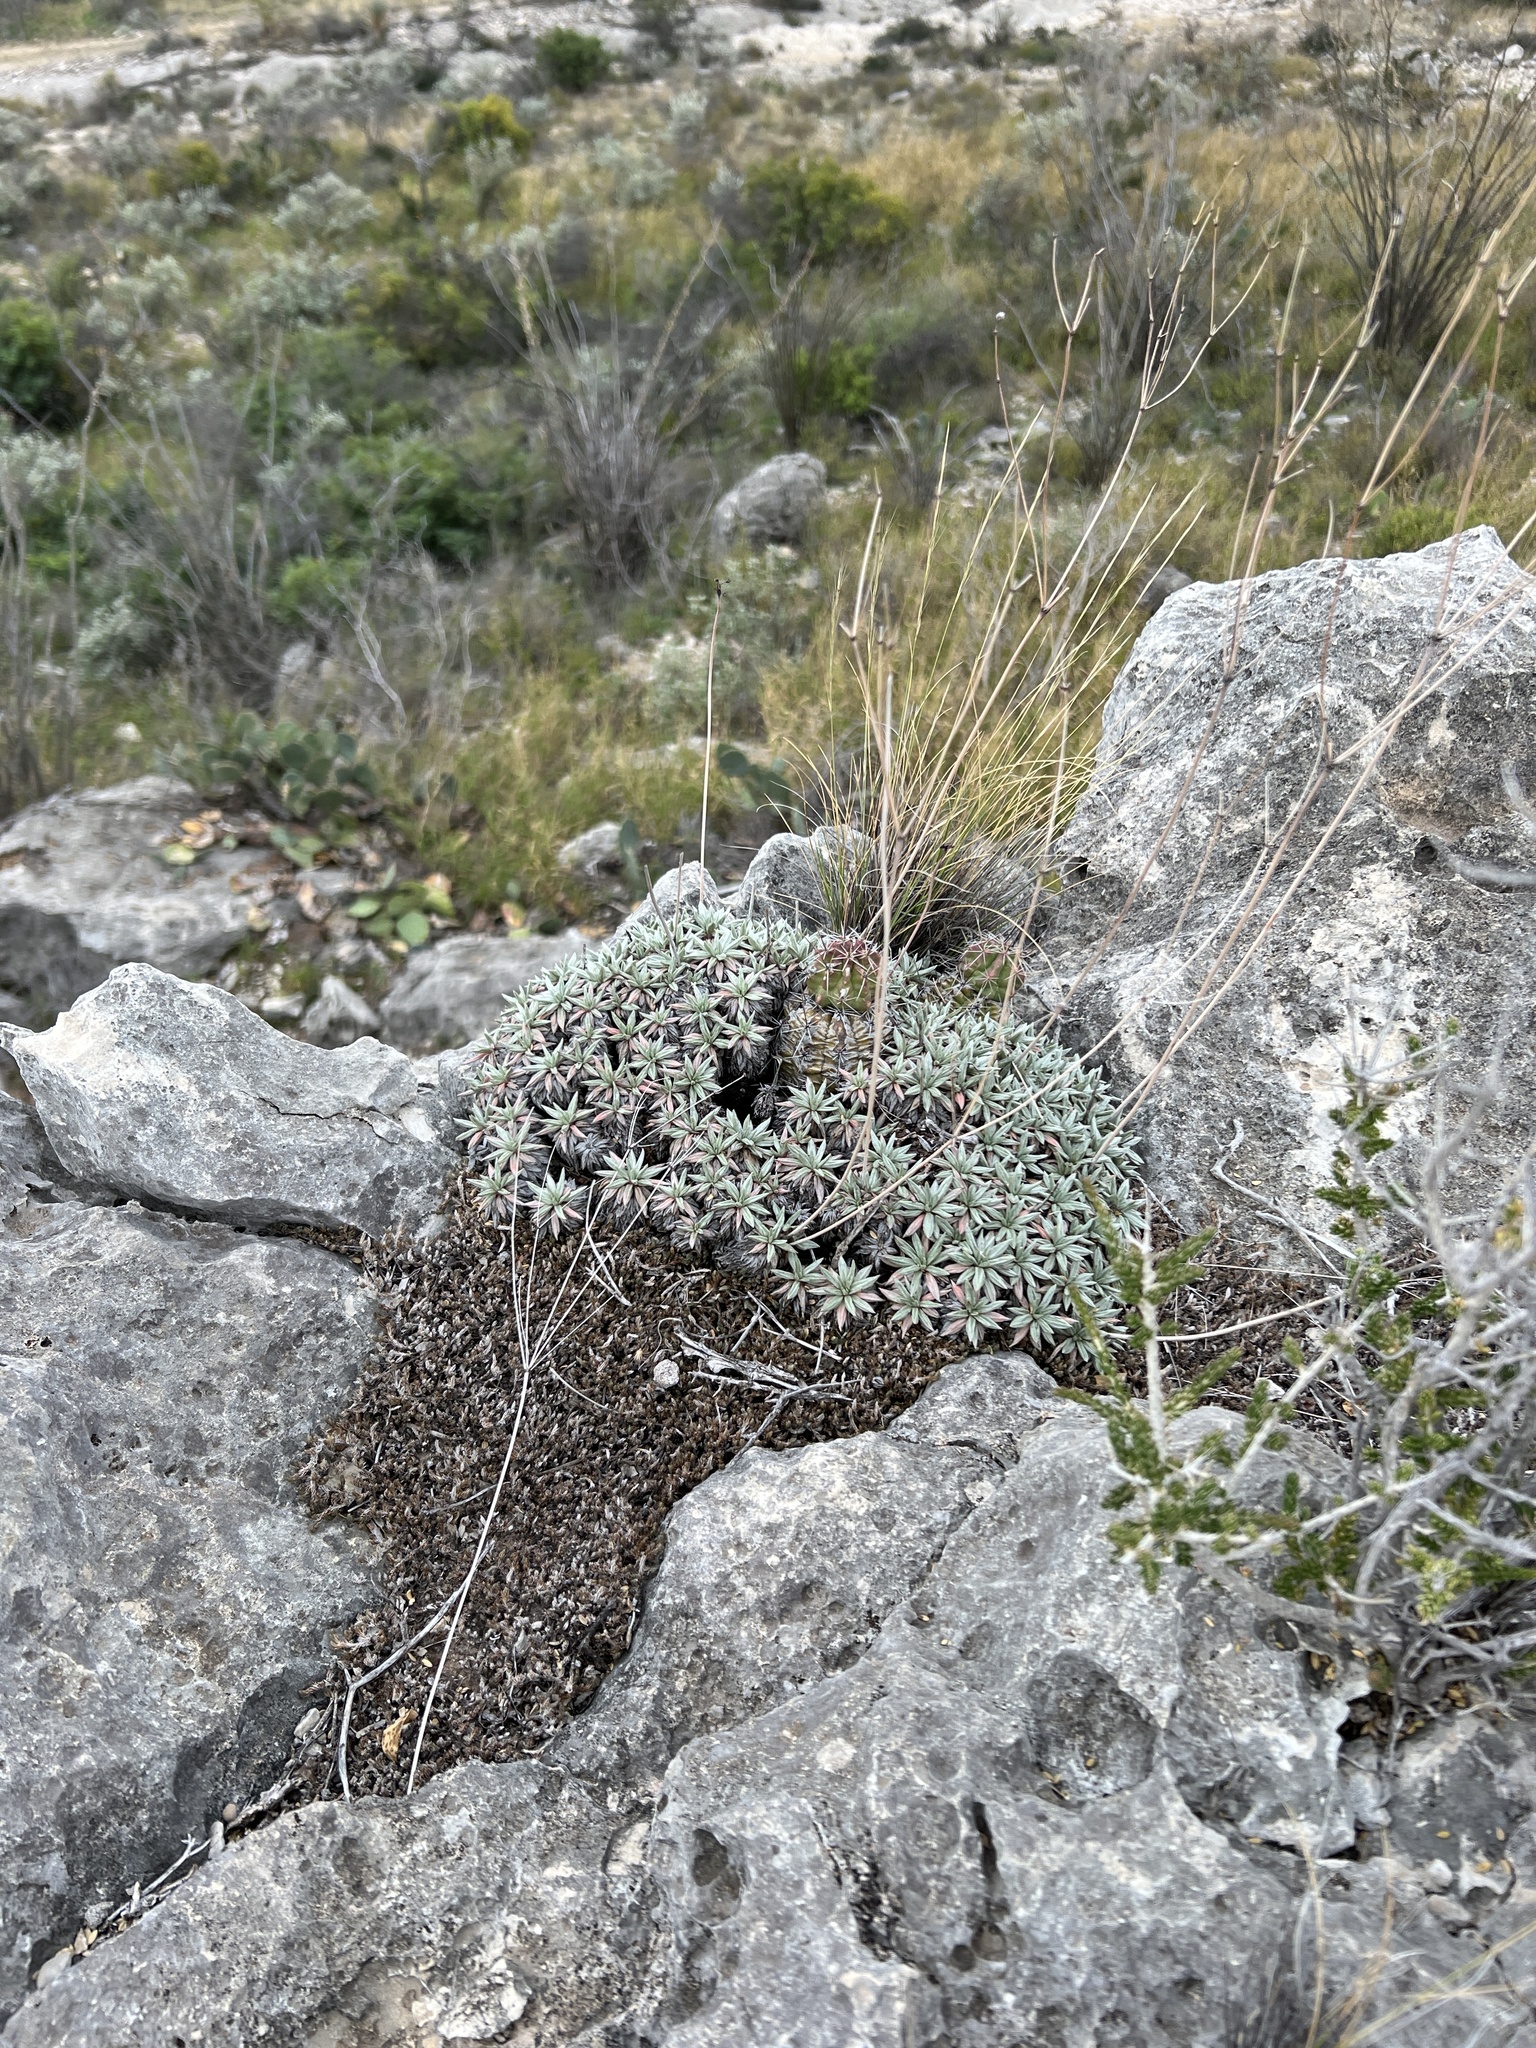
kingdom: Plantae
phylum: Tracheophyta
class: Magnoliopsida
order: Caryophyllales
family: Polygonaceae
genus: Eriogonum
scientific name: Eriogonum havardii
